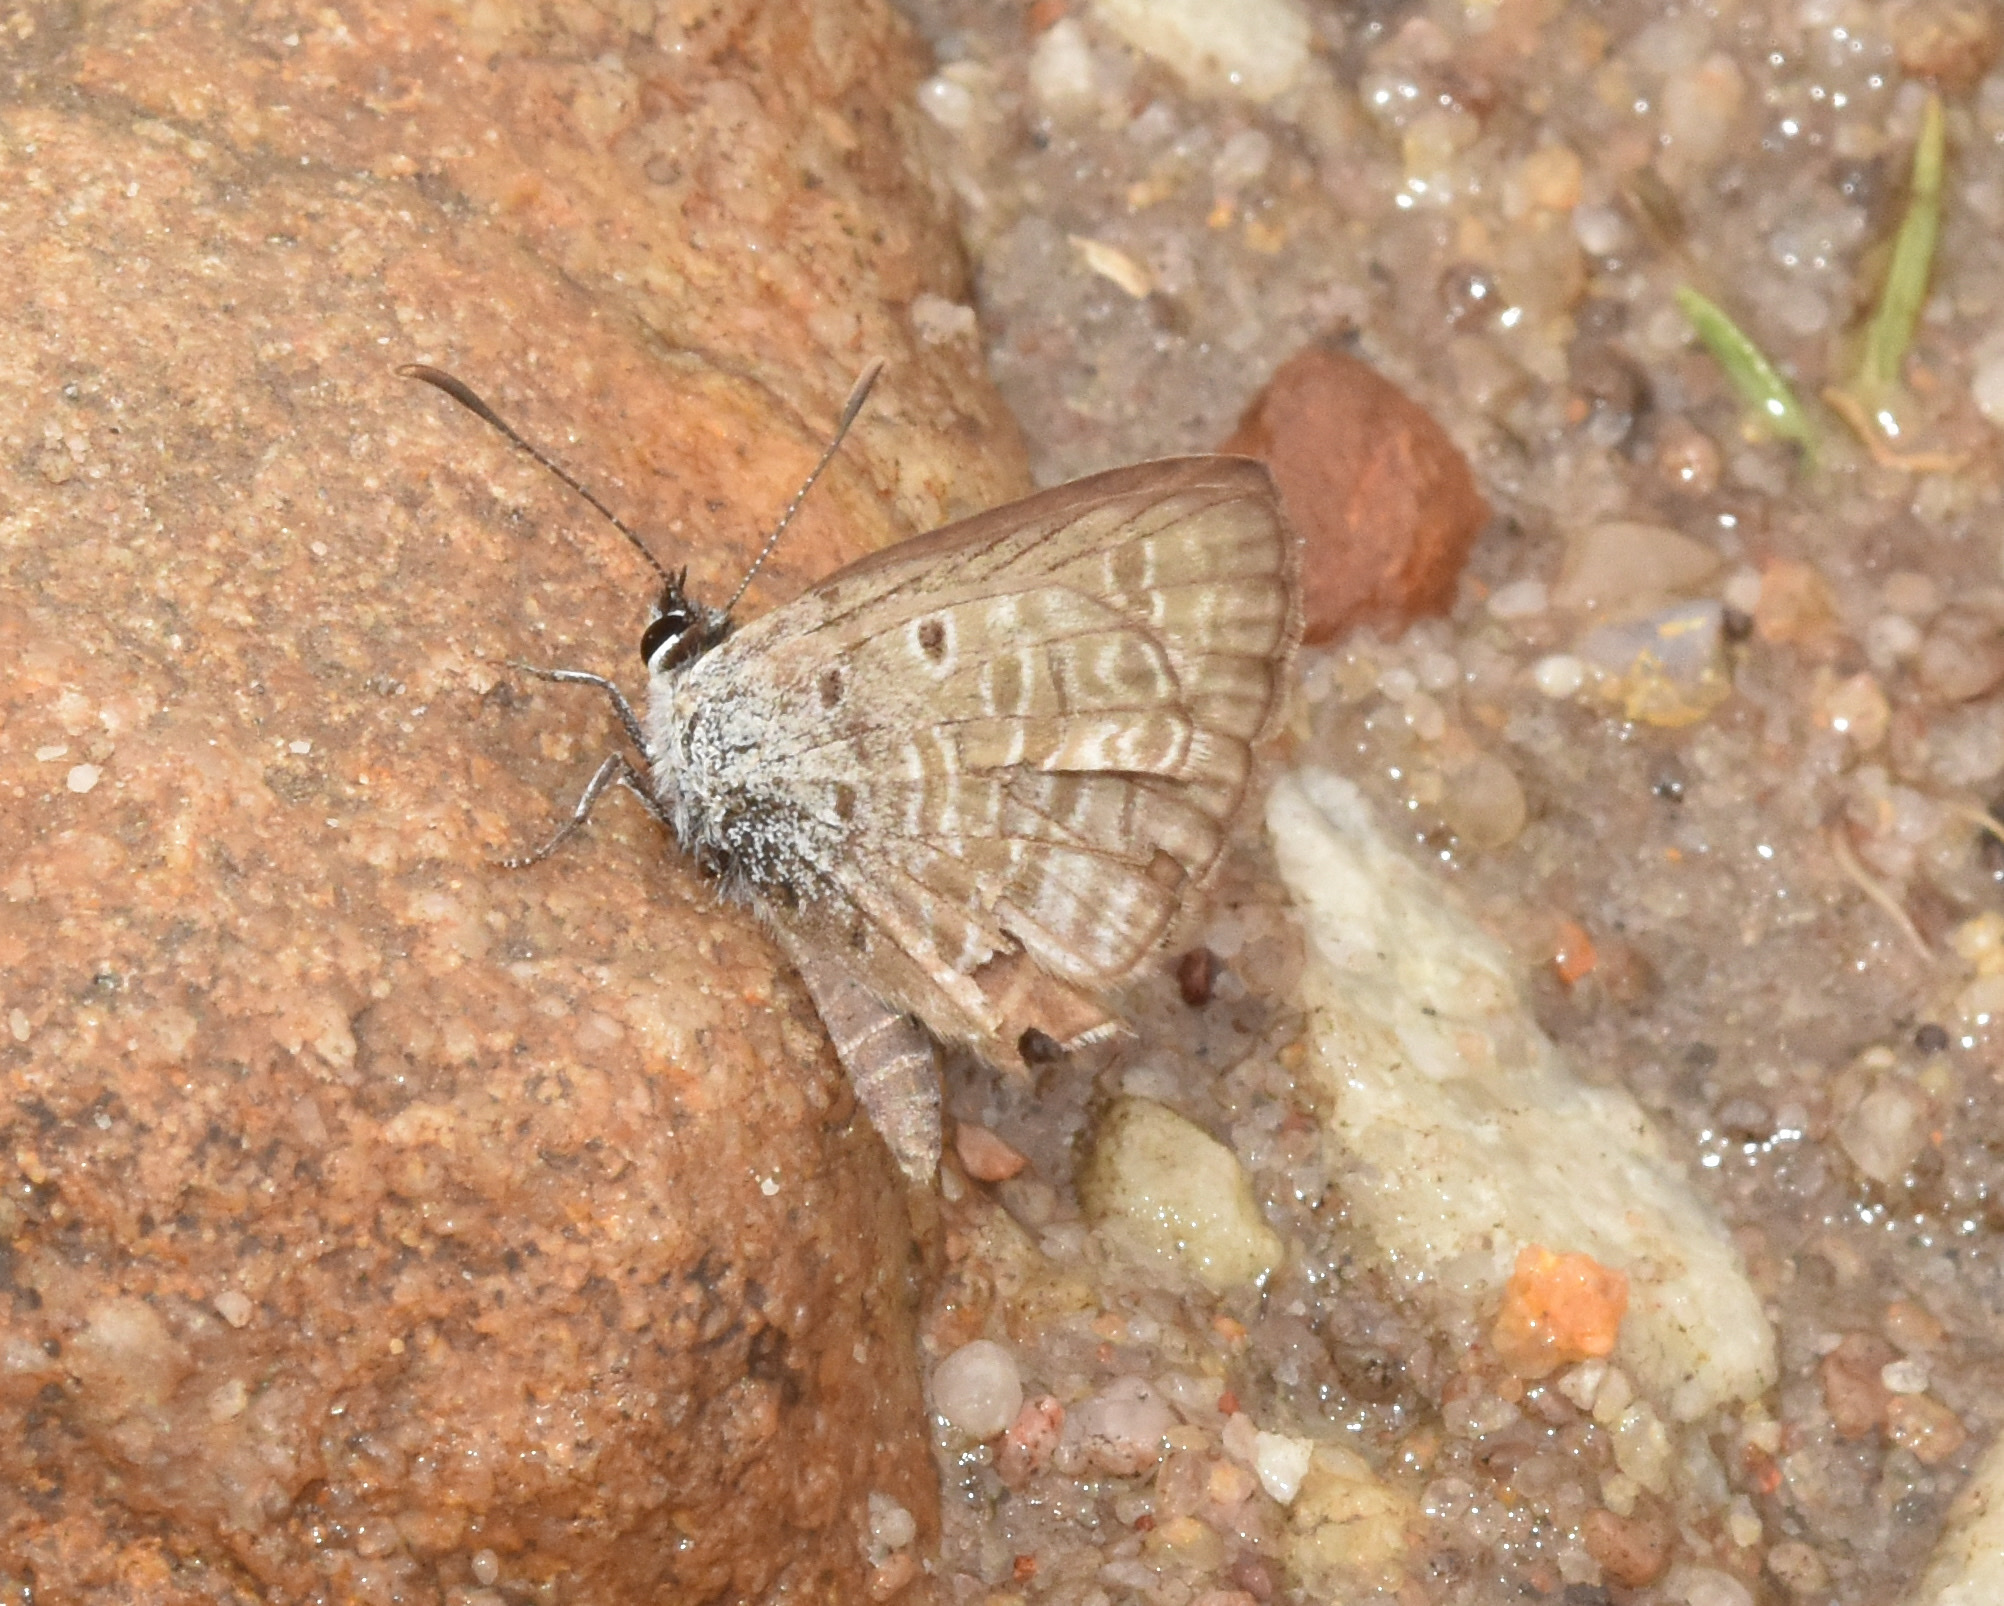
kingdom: Animalia
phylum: Arthropoda
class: Insecta
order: Lepidoptera
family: Lycaenidae
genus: Euchrysops
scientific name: Euchrysops malathana
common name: Common smoky blue
